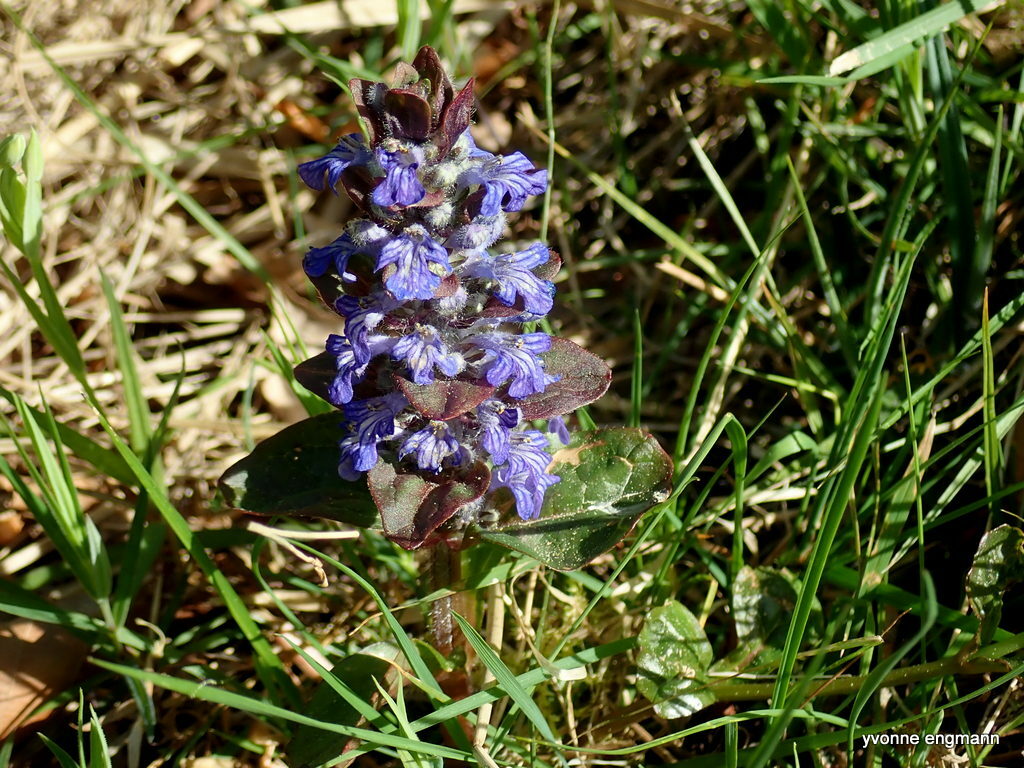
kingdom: Plantae
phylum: Tracheophyta
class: Magnoliopsida
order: Lamiales
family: Lamiaceae
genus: Ajuga
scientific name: Ajuga reptans
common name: Bugle
